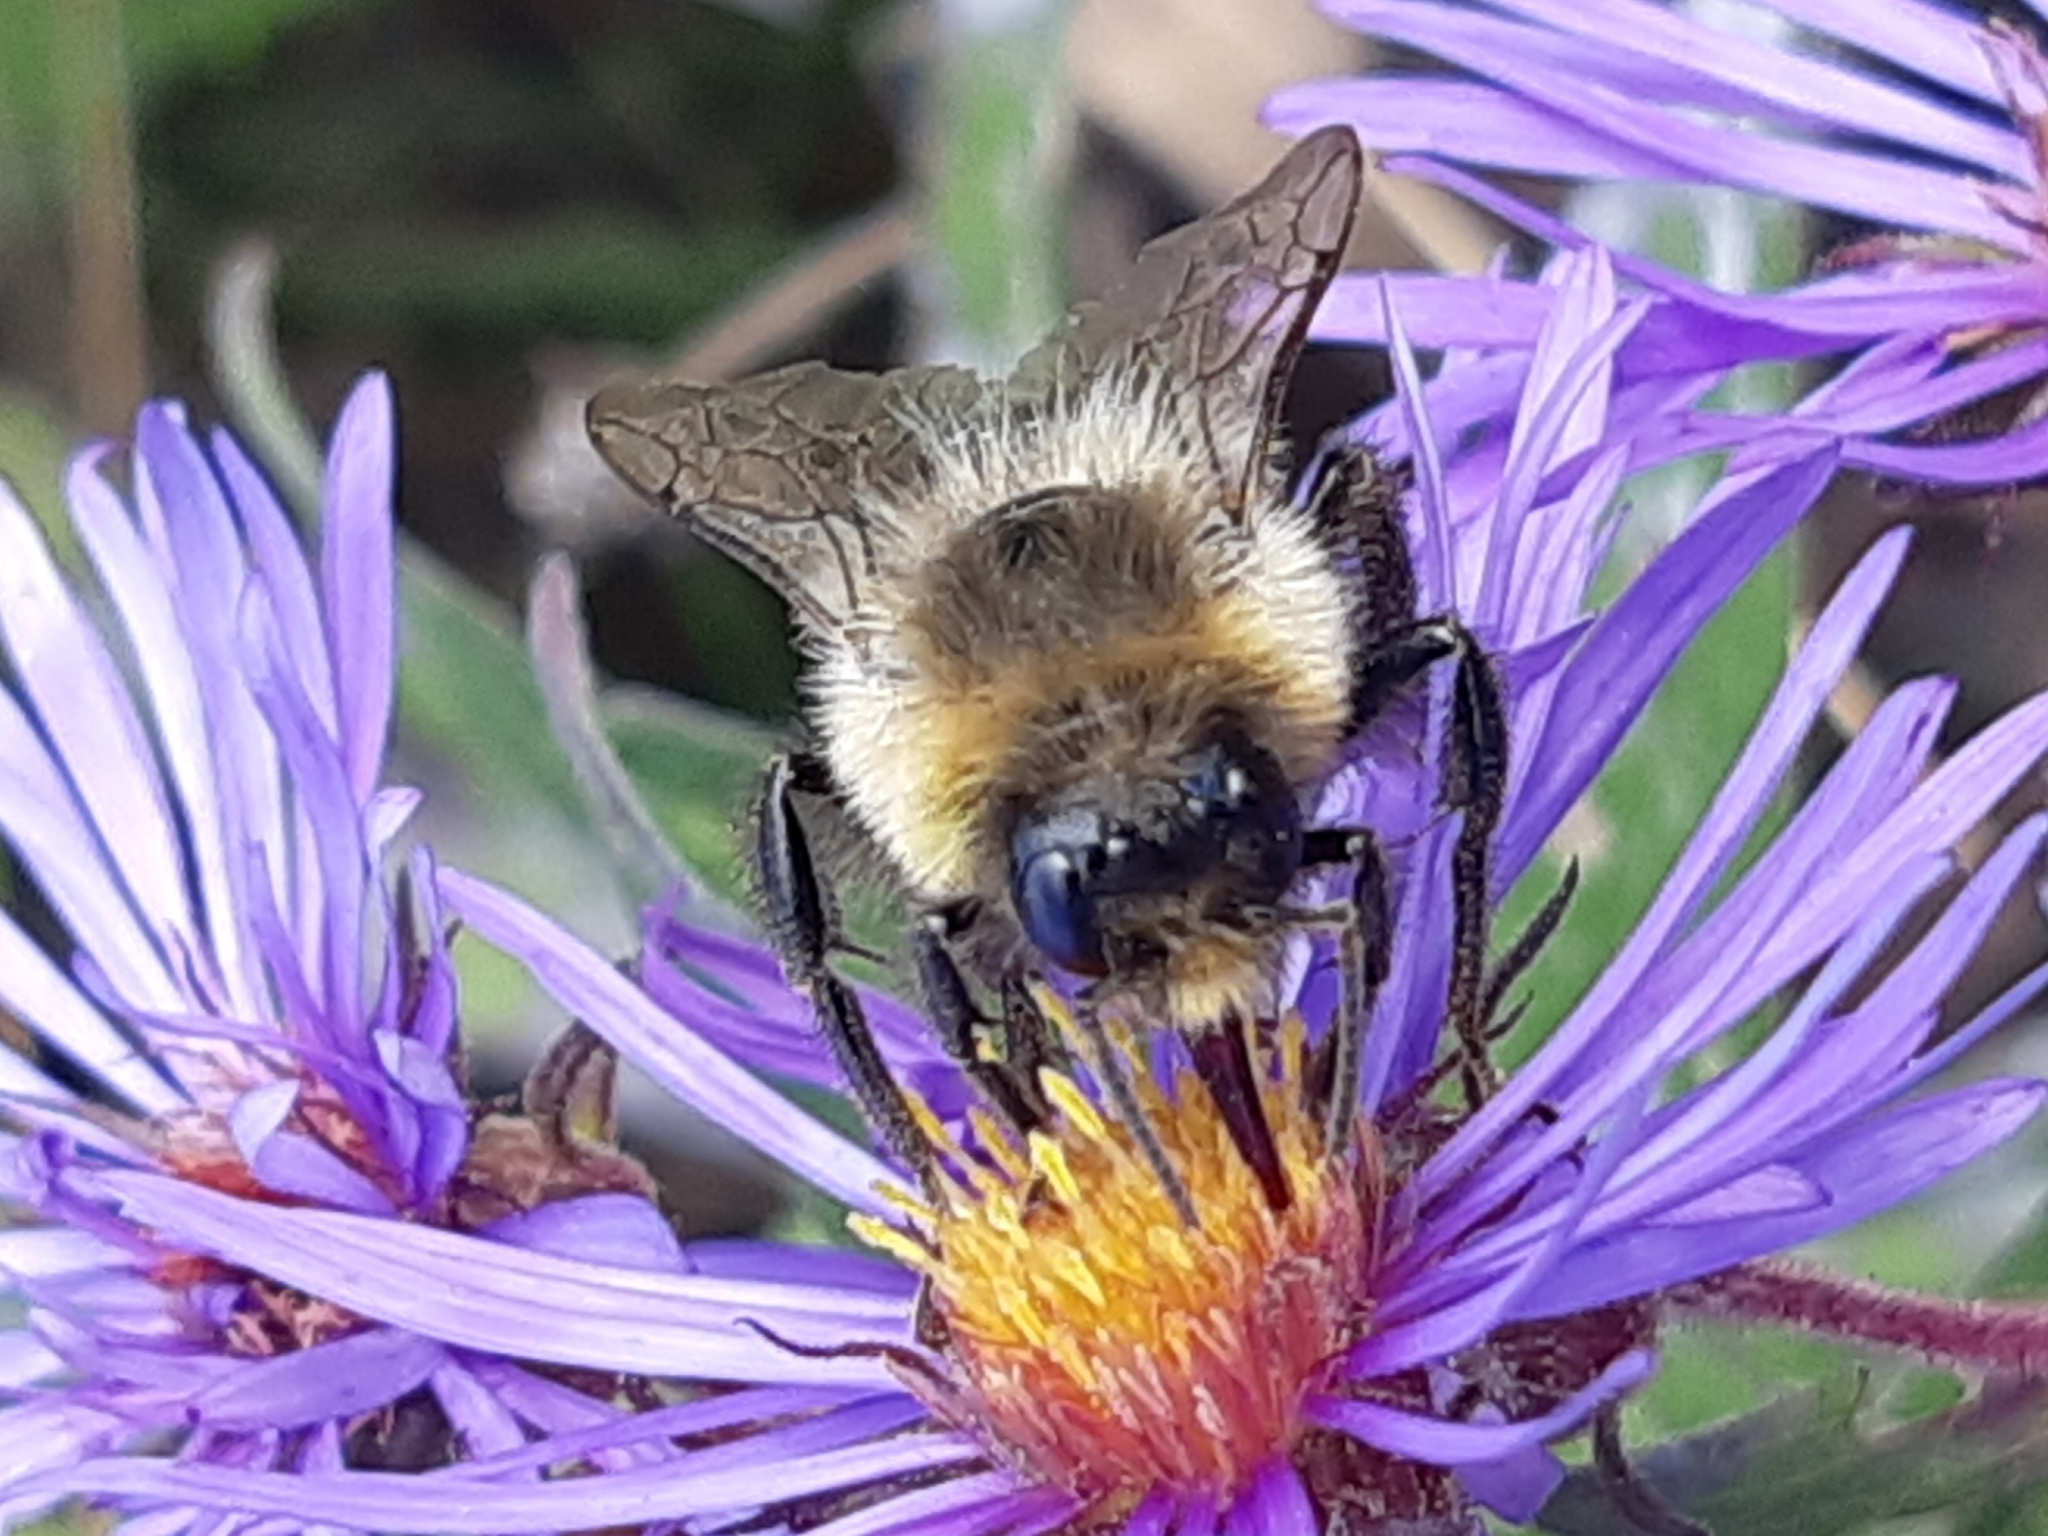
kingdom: Animalia
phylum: Arthropoda
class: Insecta
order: Hymenoptera
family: Apidae
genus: Bombus
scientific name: Bombus impatiens
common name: Common eastern bumble bee
